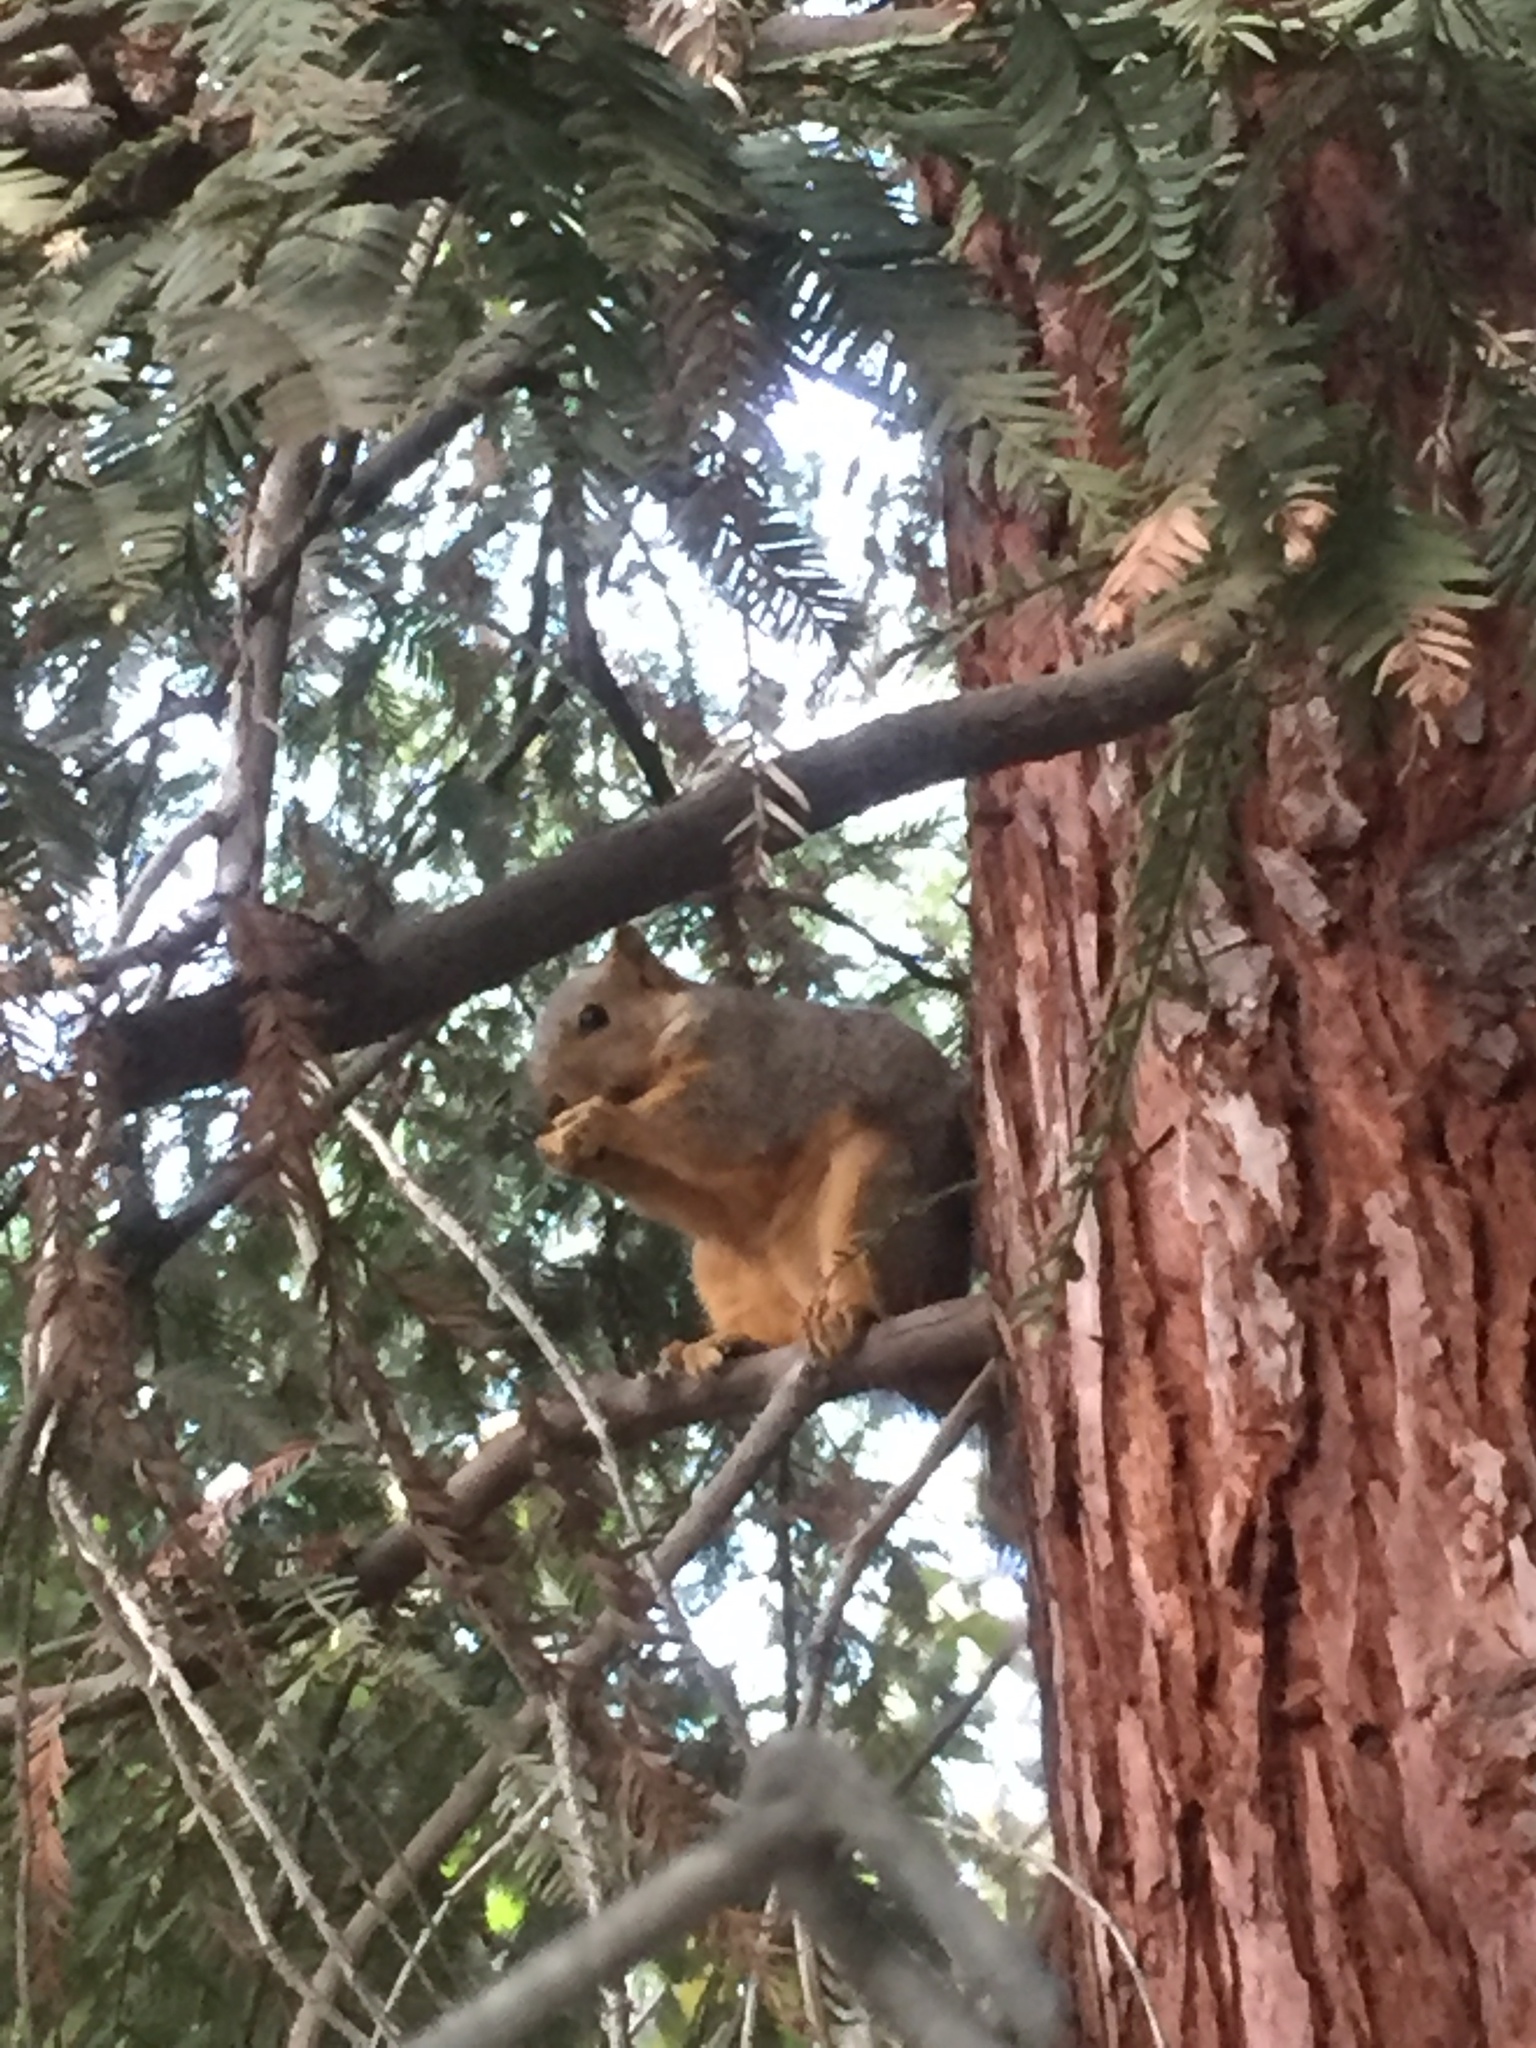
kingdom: Animalia
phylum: Chordata
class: Mammalia
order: Rodentia
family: Sciuridae
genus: Sciurus
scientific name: Sciurus niger
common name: Fox squirrel
